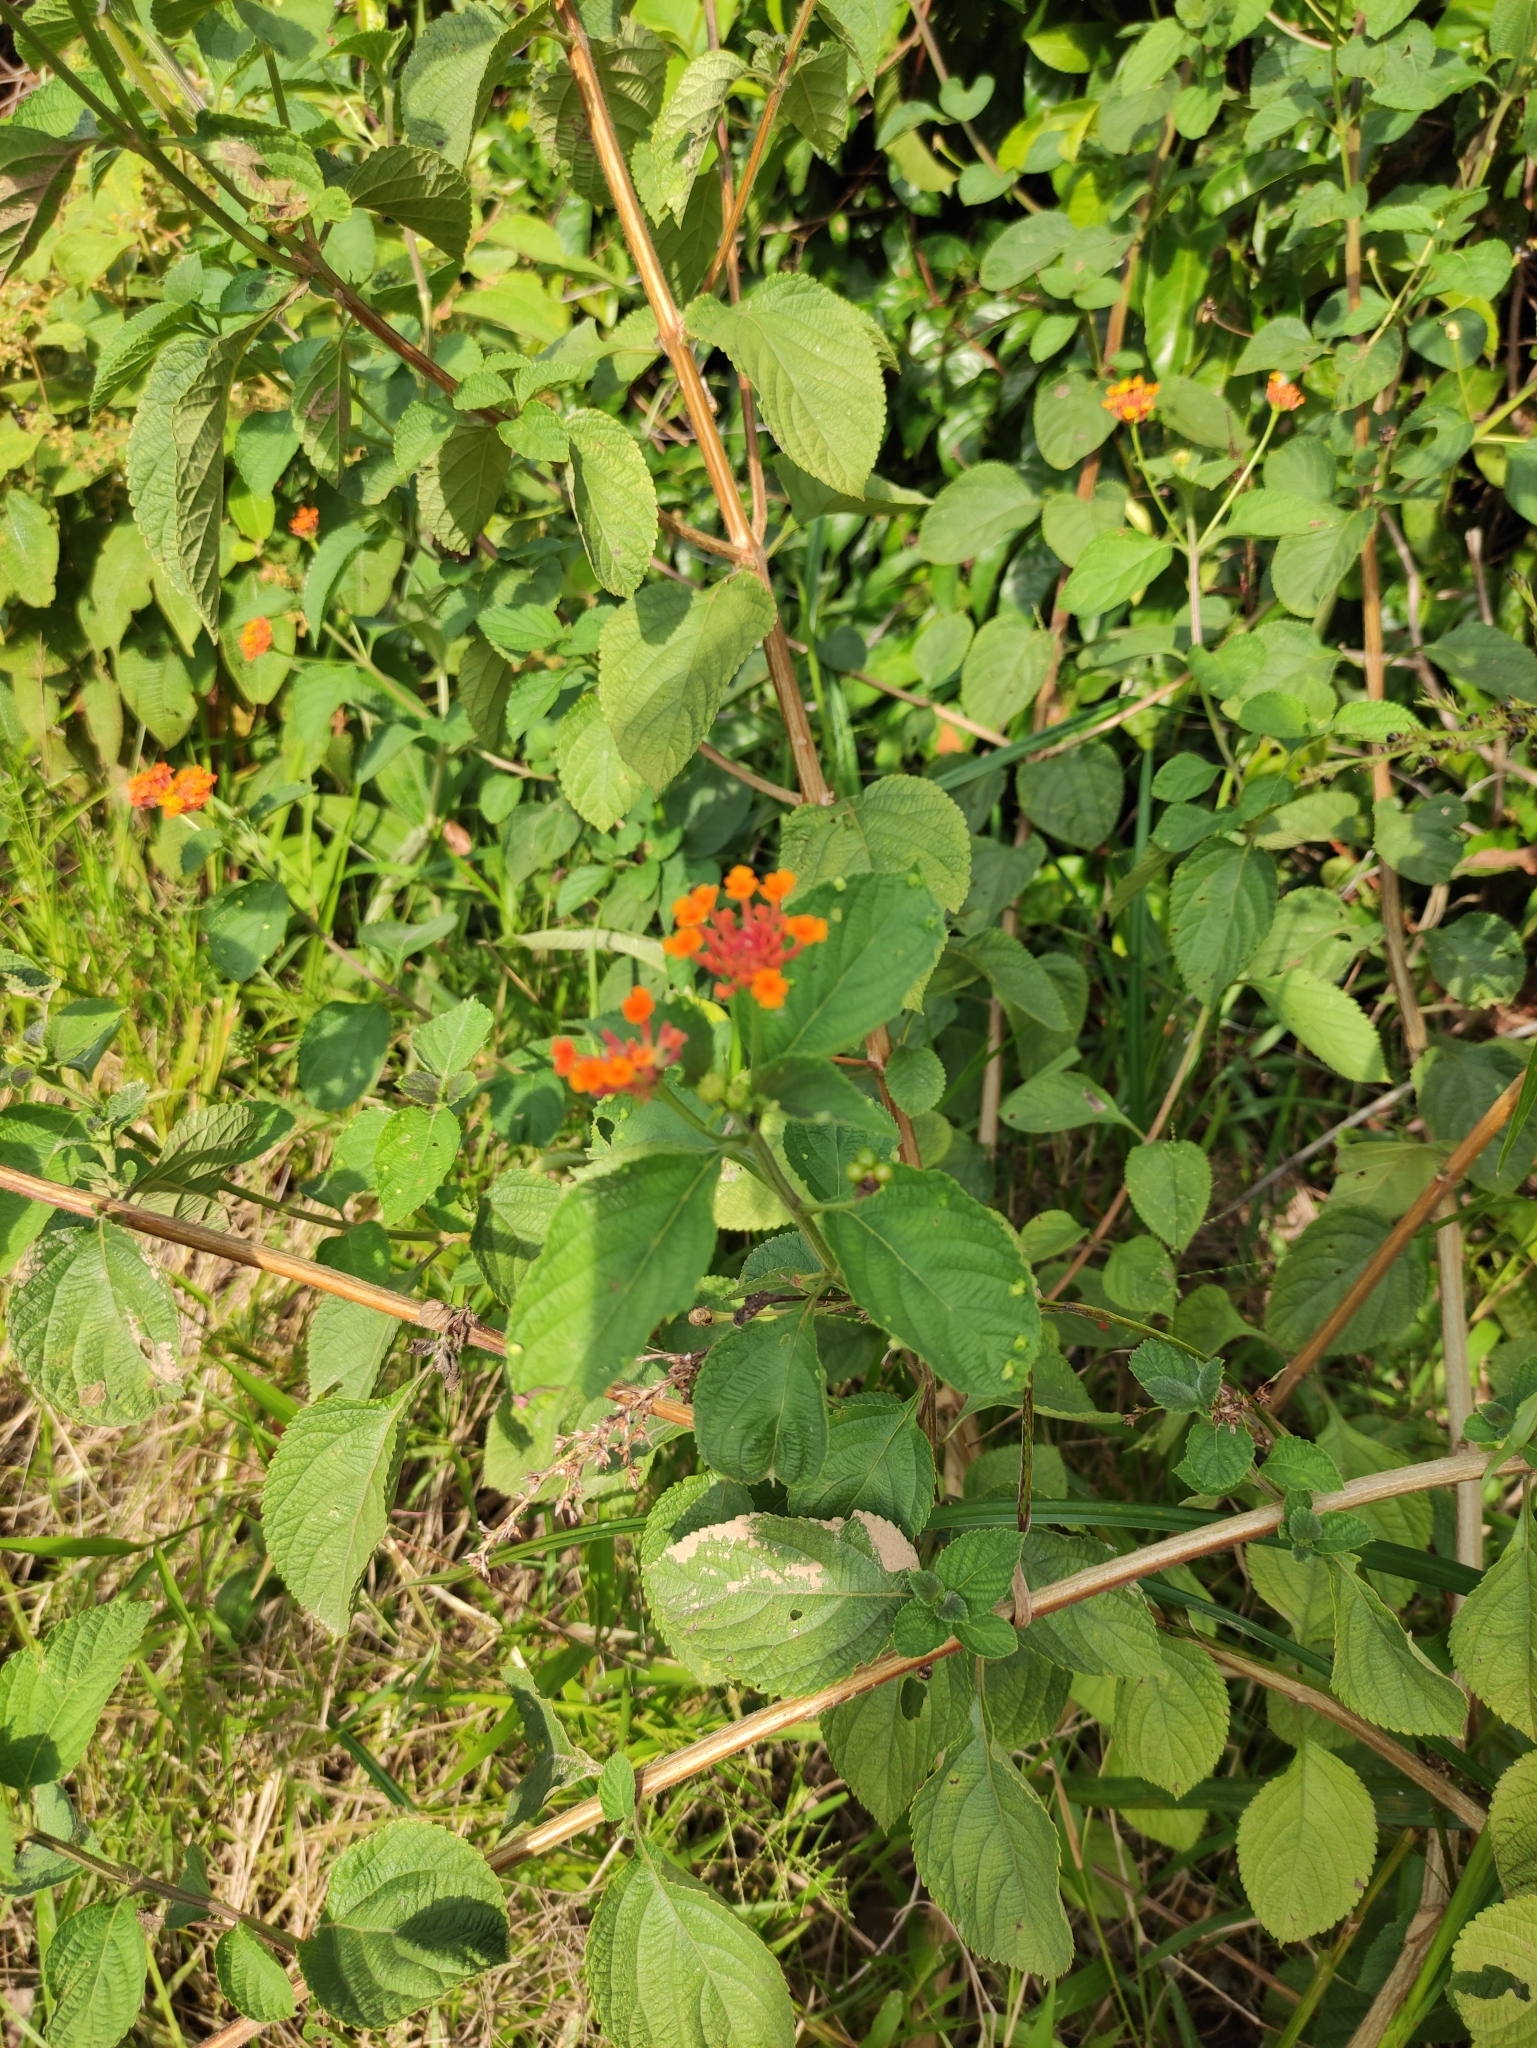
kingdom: Plantae
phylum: Tracheophyta
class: Magnoliopsida
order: Lamiales
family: Verbenaceae
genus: Lantana
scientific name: Lantana camara
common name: Lantana
